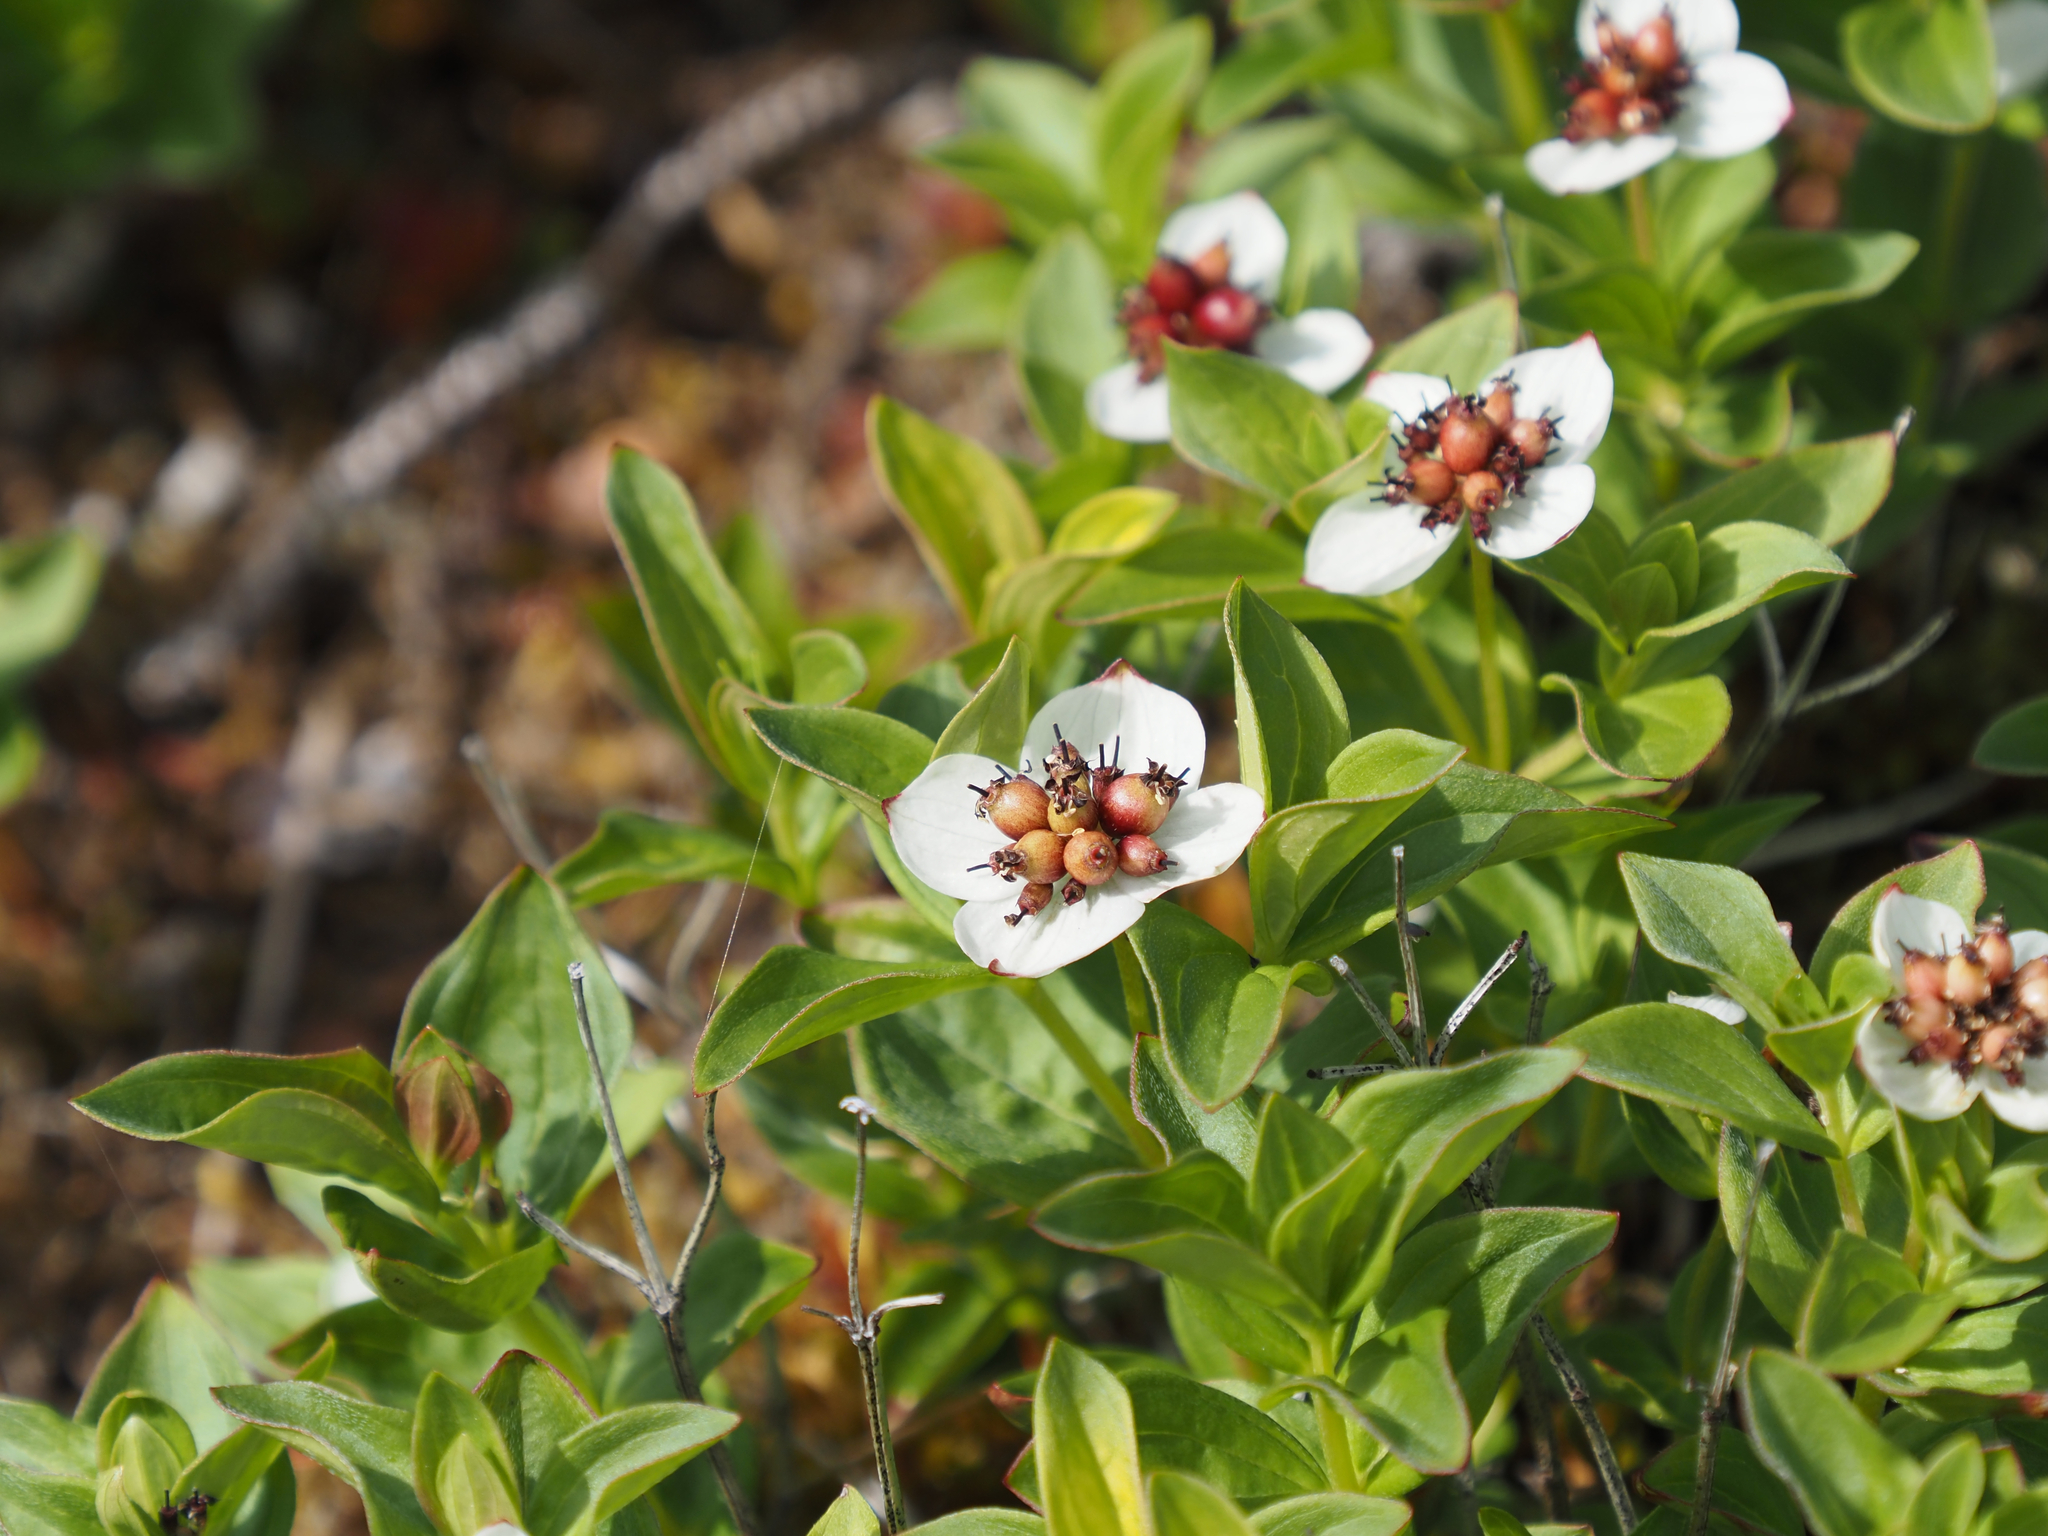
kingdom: Plantae
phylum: Tracheophyta
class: Magnoliopsida
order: Cornales
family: Cornaceae
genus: Cornus
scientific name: Cornus suecica
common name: Dwarf cornel
